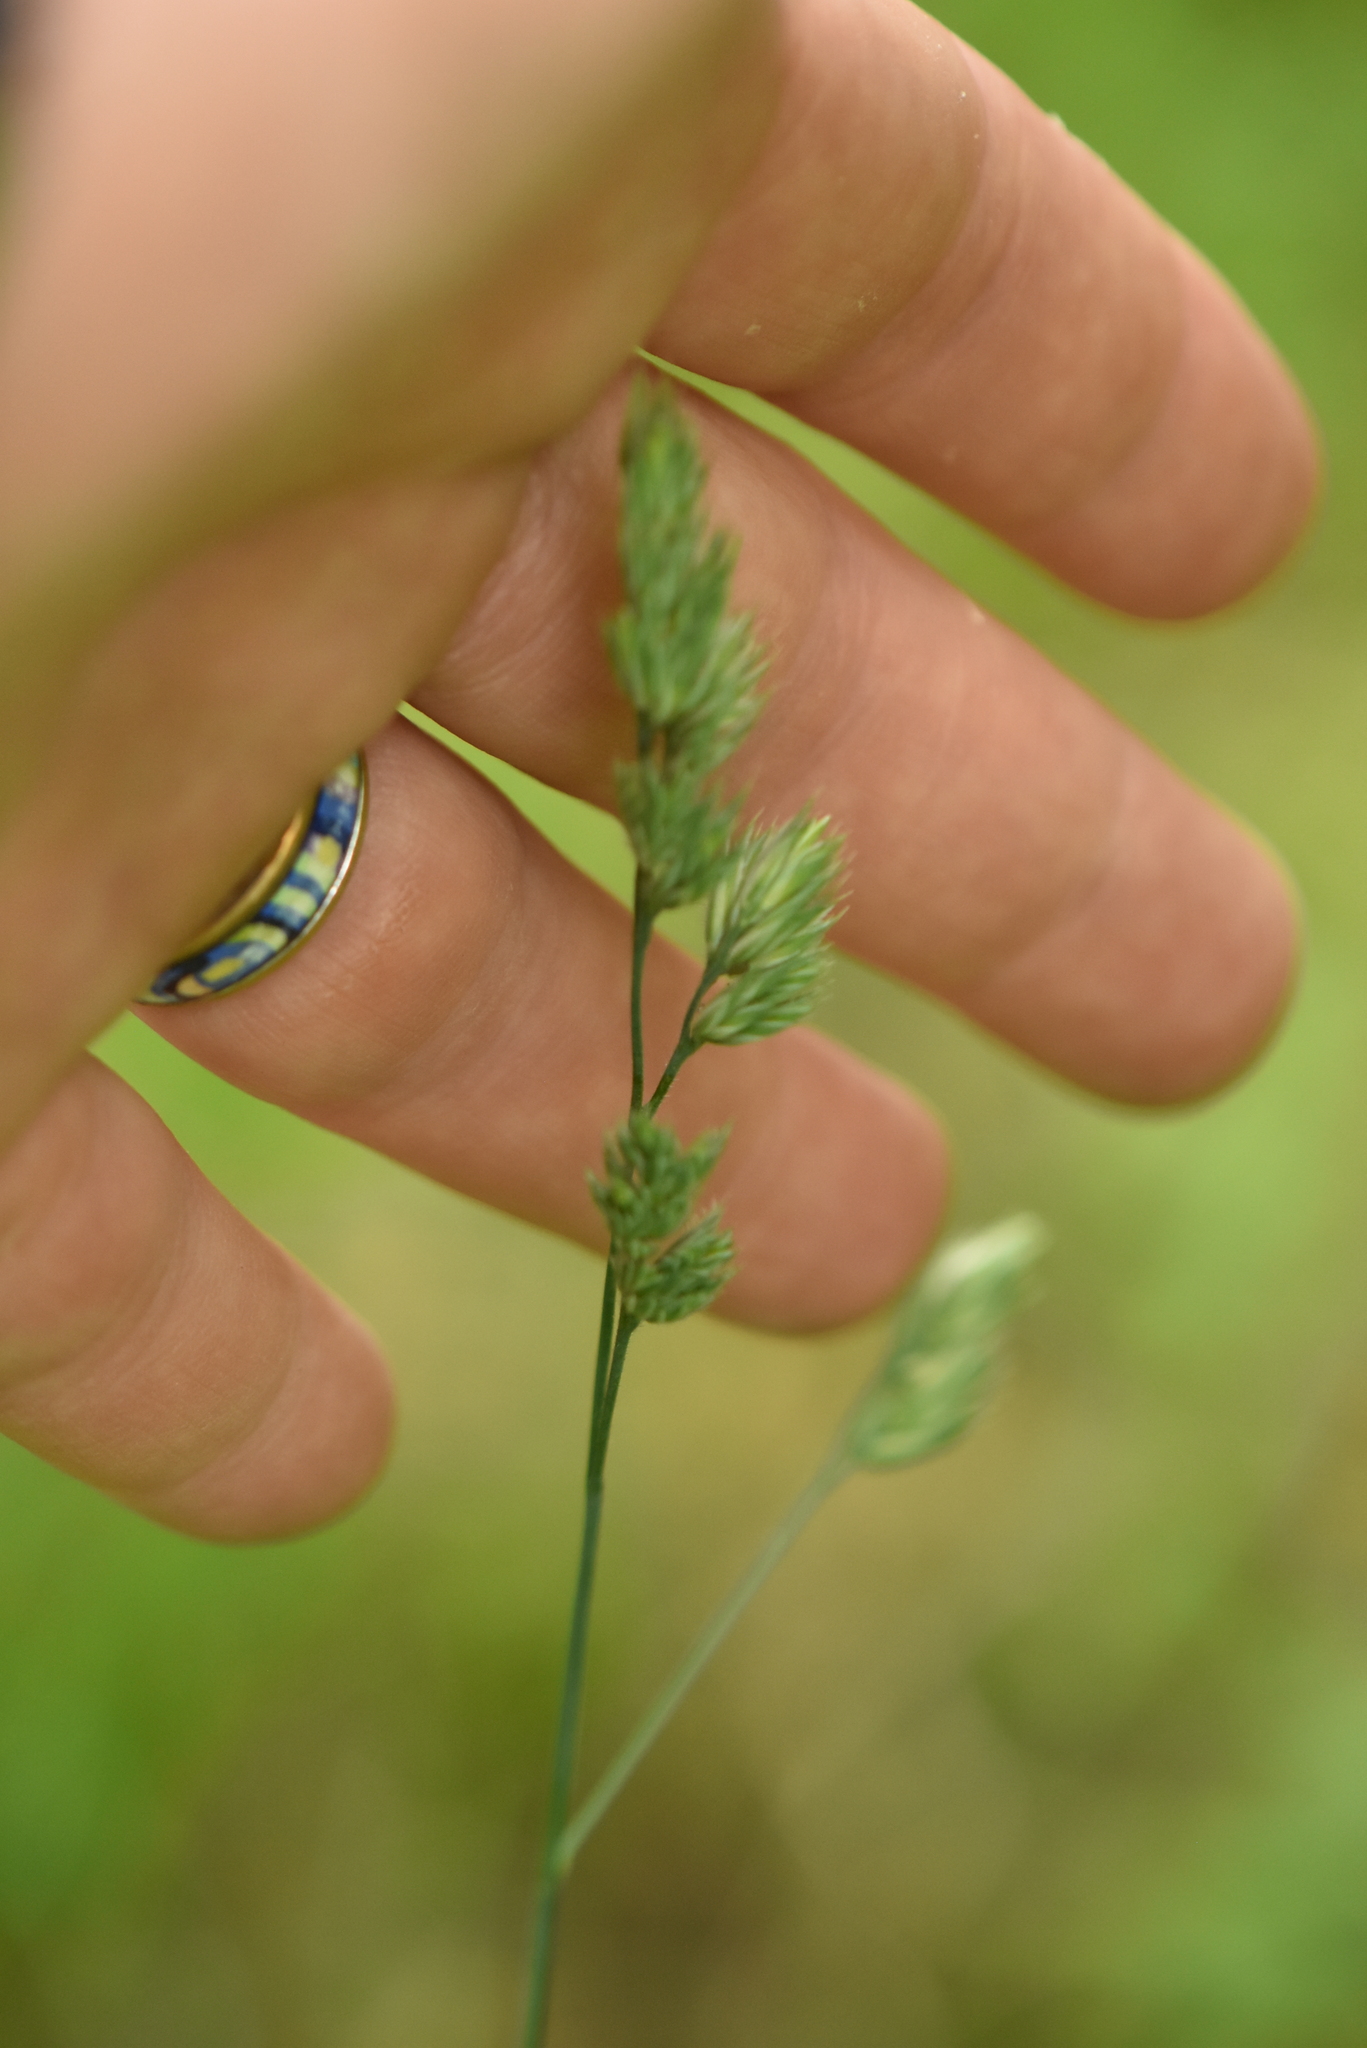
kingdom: Plantae
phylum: Tracheophyta
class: Liliopsida
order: Poales
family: Poaceae
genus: Dactylis
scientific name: Dactylis glomerata
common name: Orchardgrass
